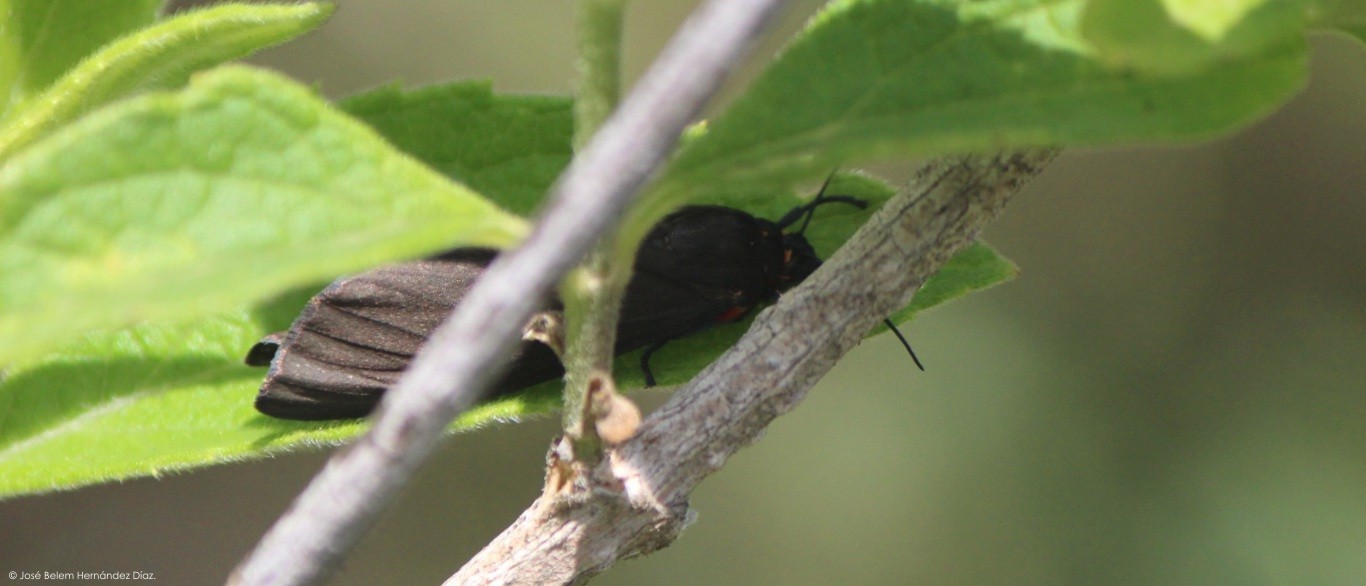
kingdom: Animalia
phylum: Arthropoda
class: Insecta
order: Lepidoptera
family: Erebidae
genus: Allanwatsonia
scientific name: Allanwatsonia hodeva
